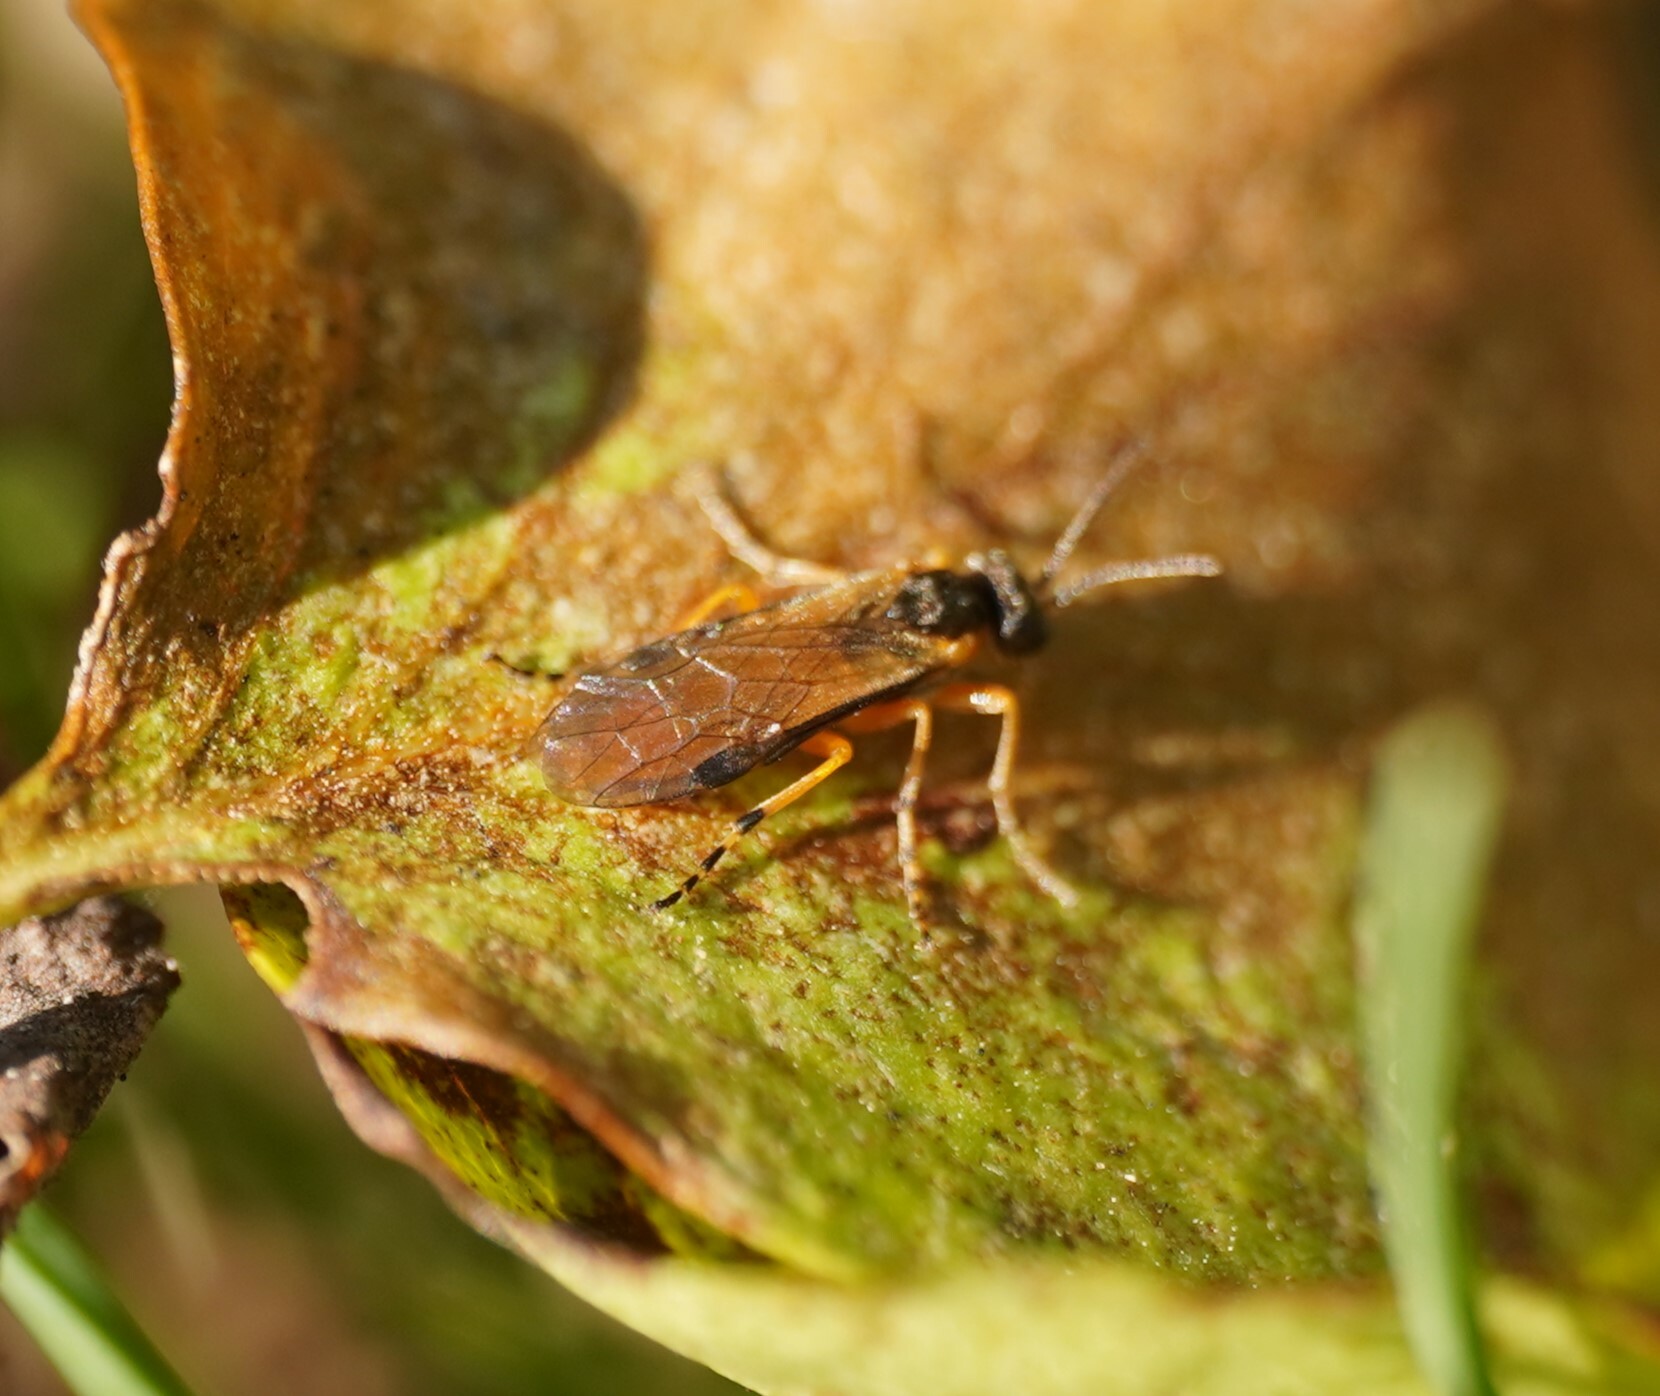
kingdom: Animalia
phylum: Arthropoda
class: Insecta
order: Hymenoptera
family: Tenthredinidae
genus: Athalia
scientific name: Athalia
